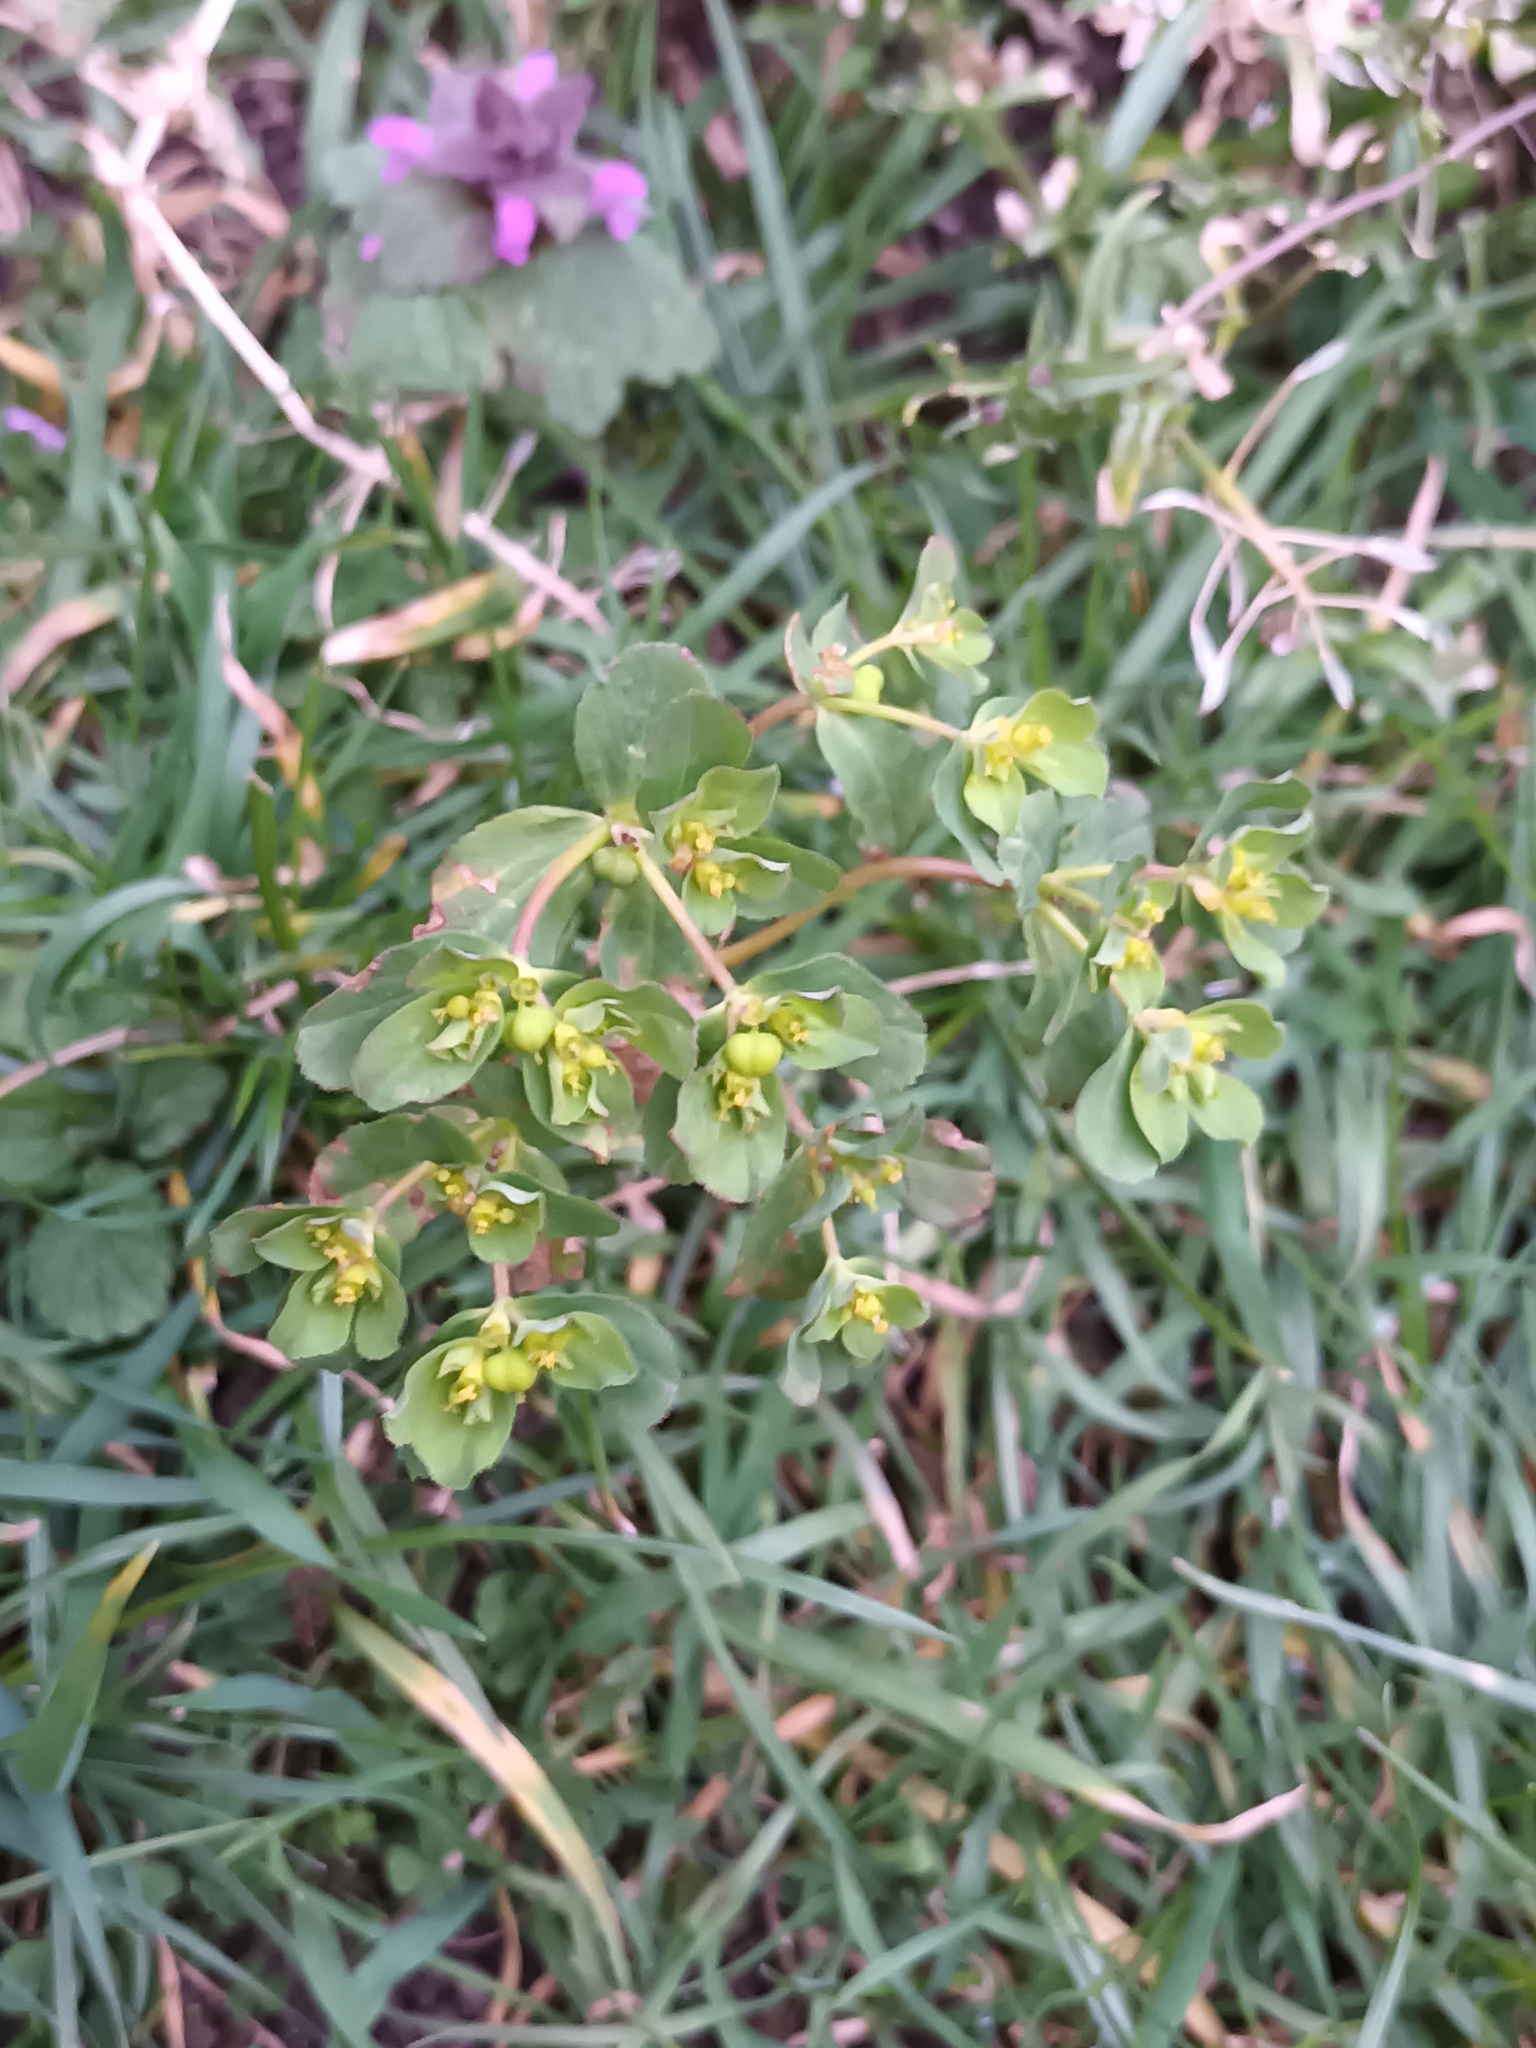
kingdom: Plantae
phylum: Tracheophyta
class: Magnoliopsida
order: Malpighiales
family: Euphorbiaceae
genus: Euphorbia
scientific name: Euphorbia helioscopia
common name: Sun spurge
